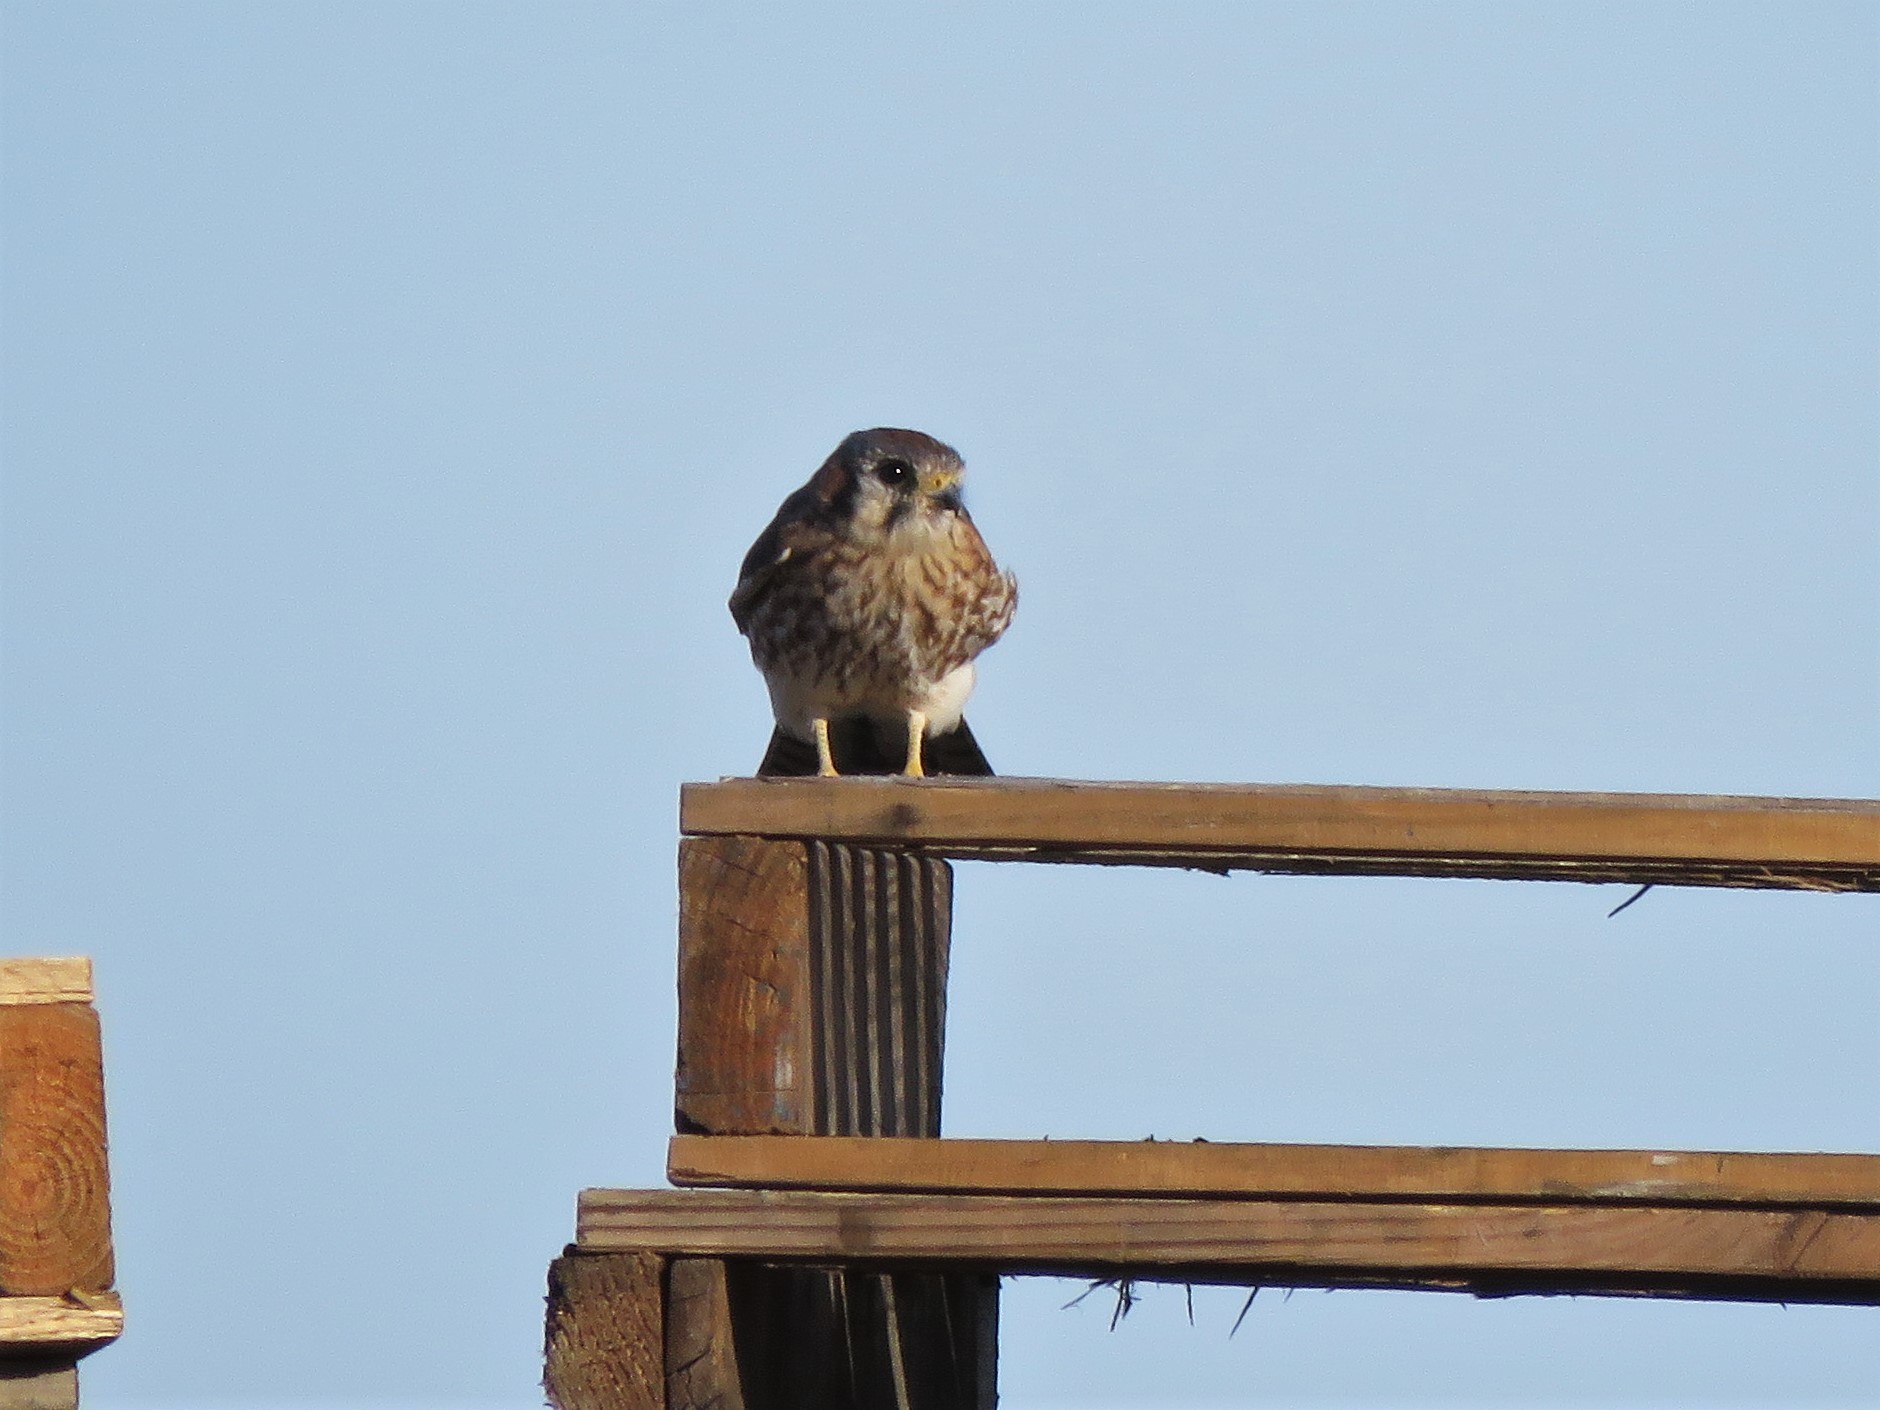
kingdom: Animalia
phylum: Chordata
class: Aves
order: Falconiformes
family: Falconidae
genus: Falco
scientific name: Falco sparverius
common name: American kestrel
